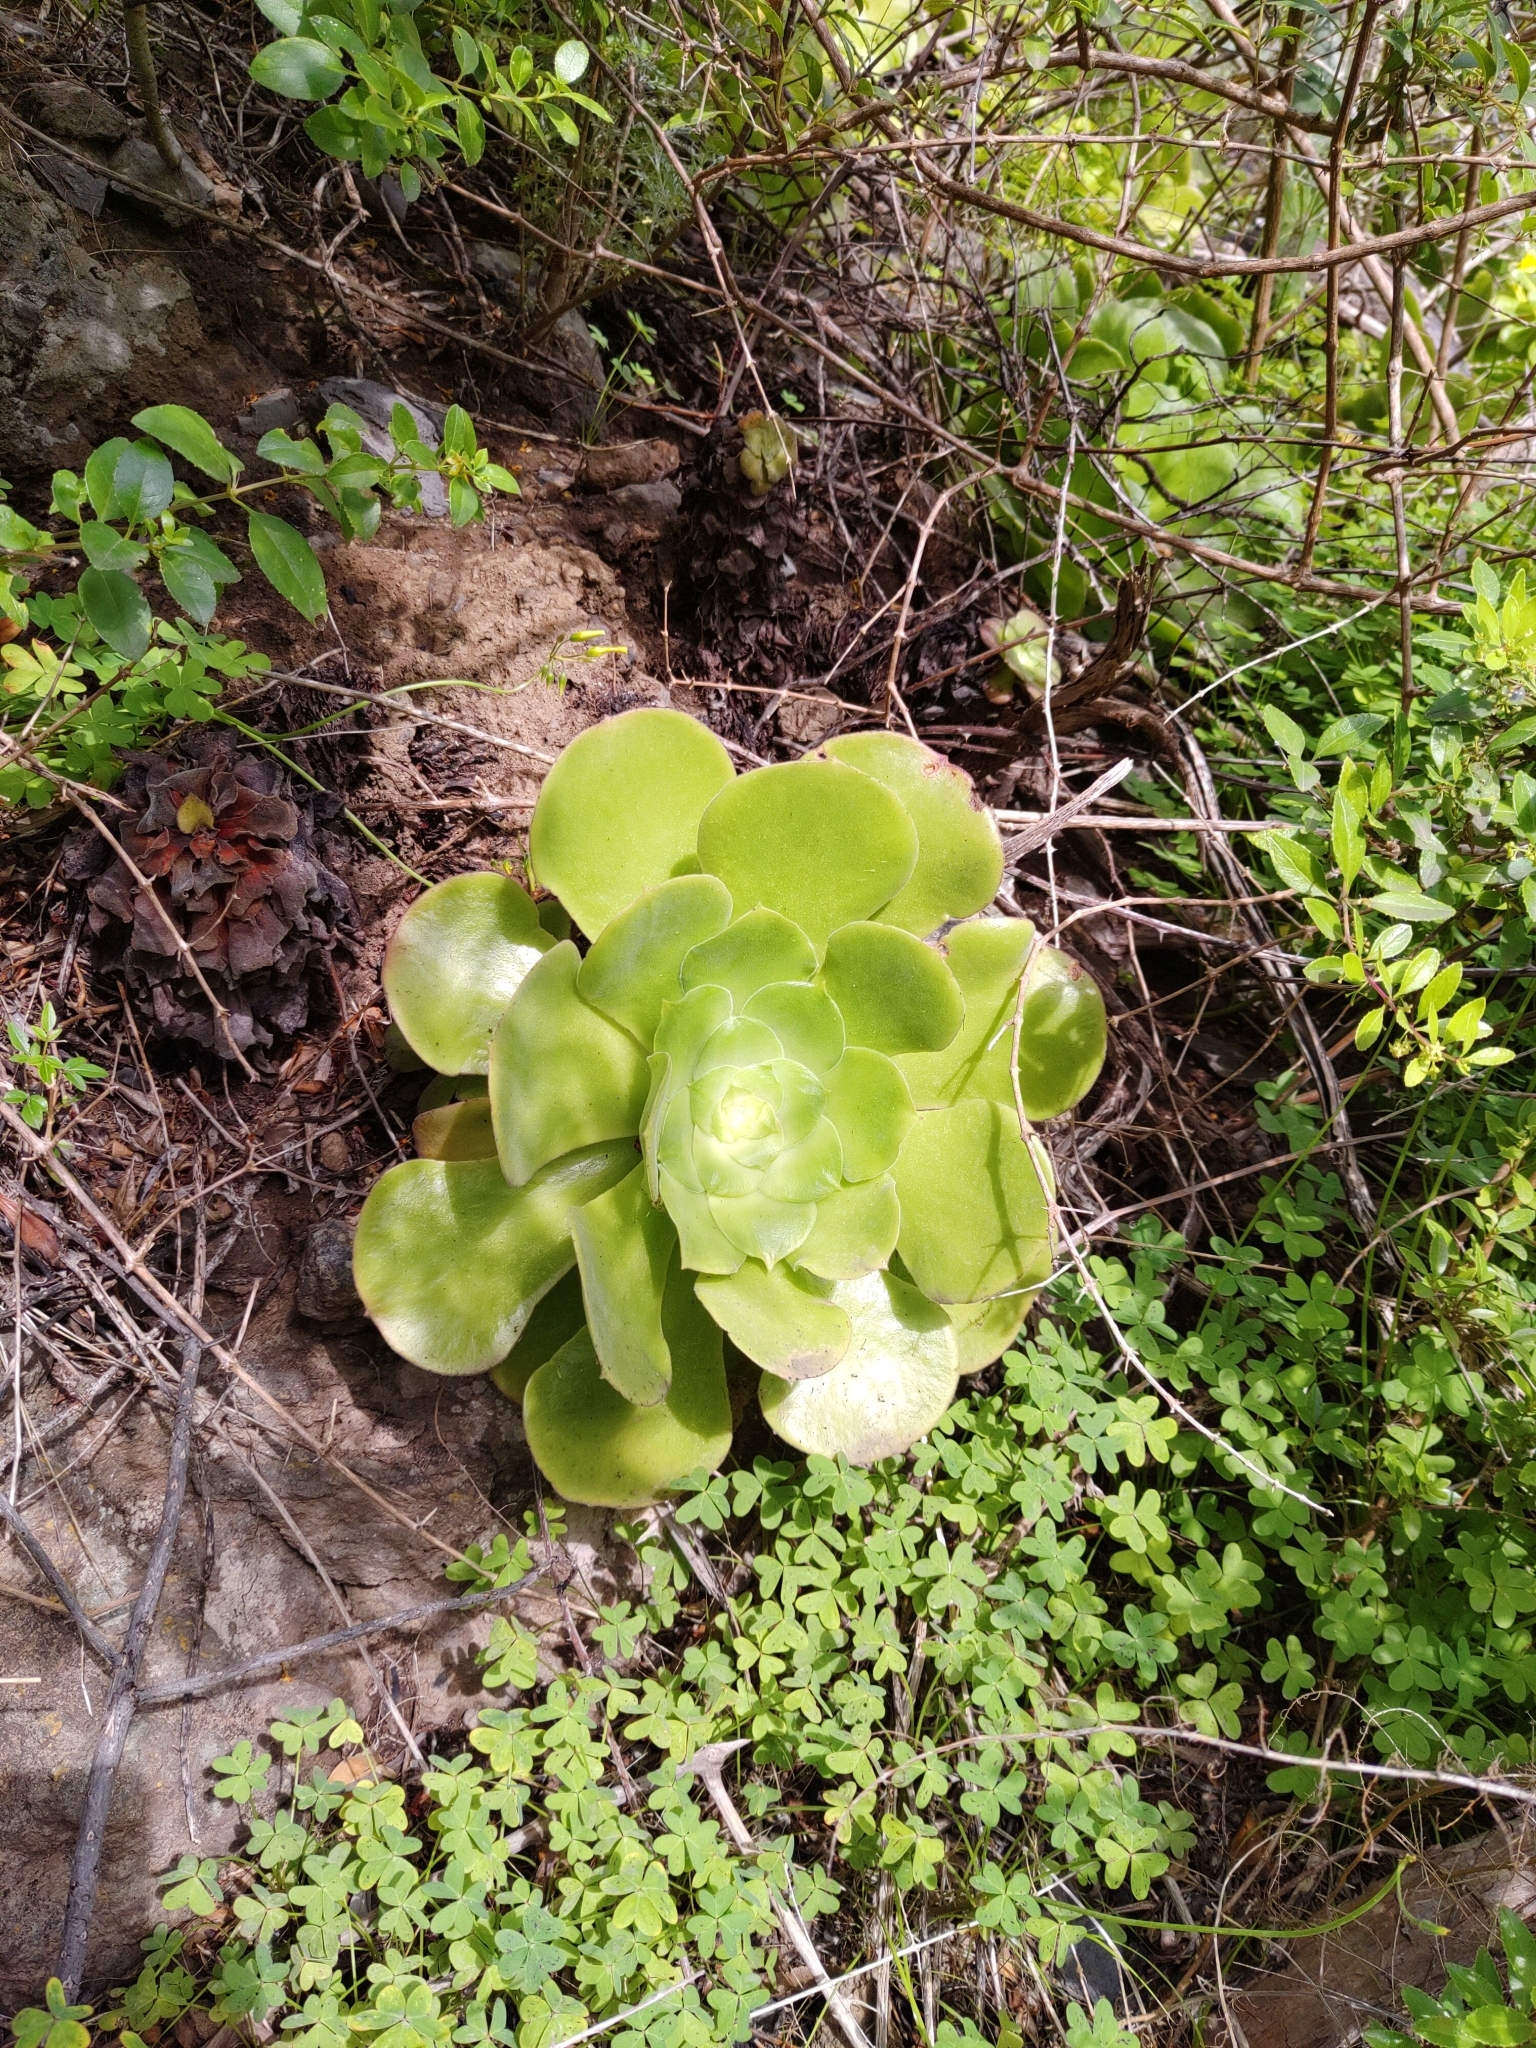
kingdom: Plantae
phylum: Tracheophyta
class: Magnoliopsida
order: Saxifragales
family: Crassulaceae
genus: Aeonium
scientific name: Aeonium canariense
